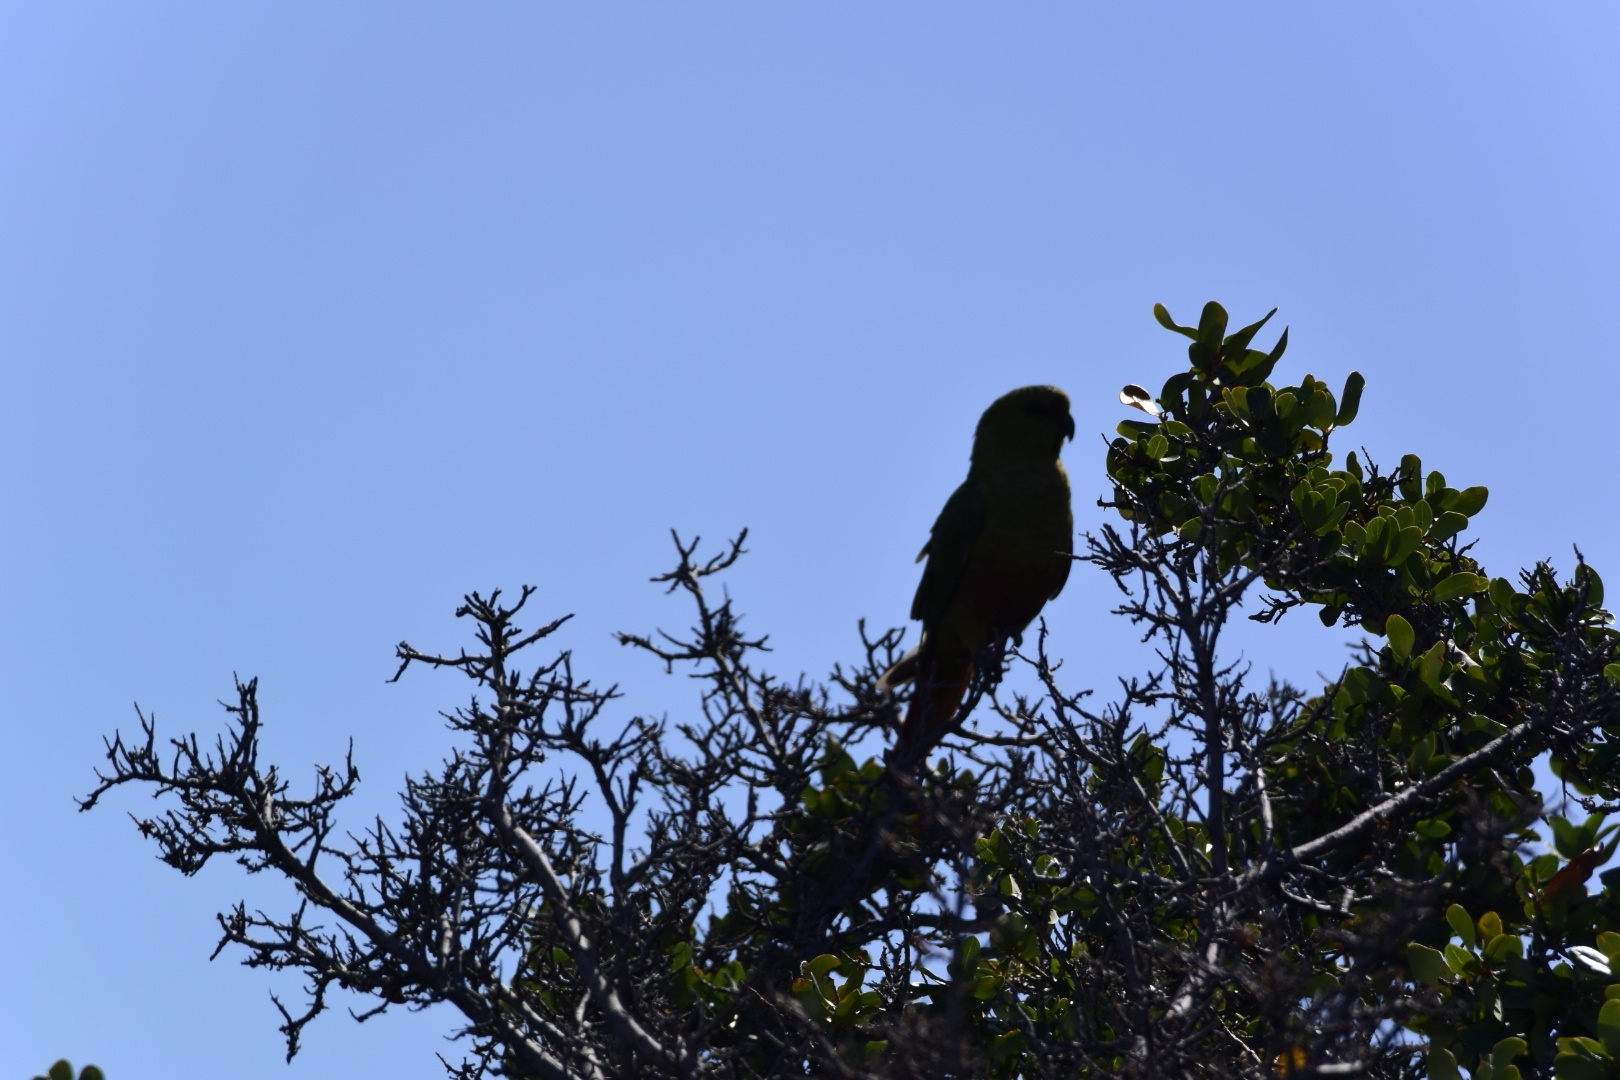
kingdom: Animalia
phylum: Chordata
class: Aves
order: Psittaciformes
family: Psittacidae
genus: Enicognathus
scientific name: Enicognathus ferrugineus
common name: Austral parakeet
